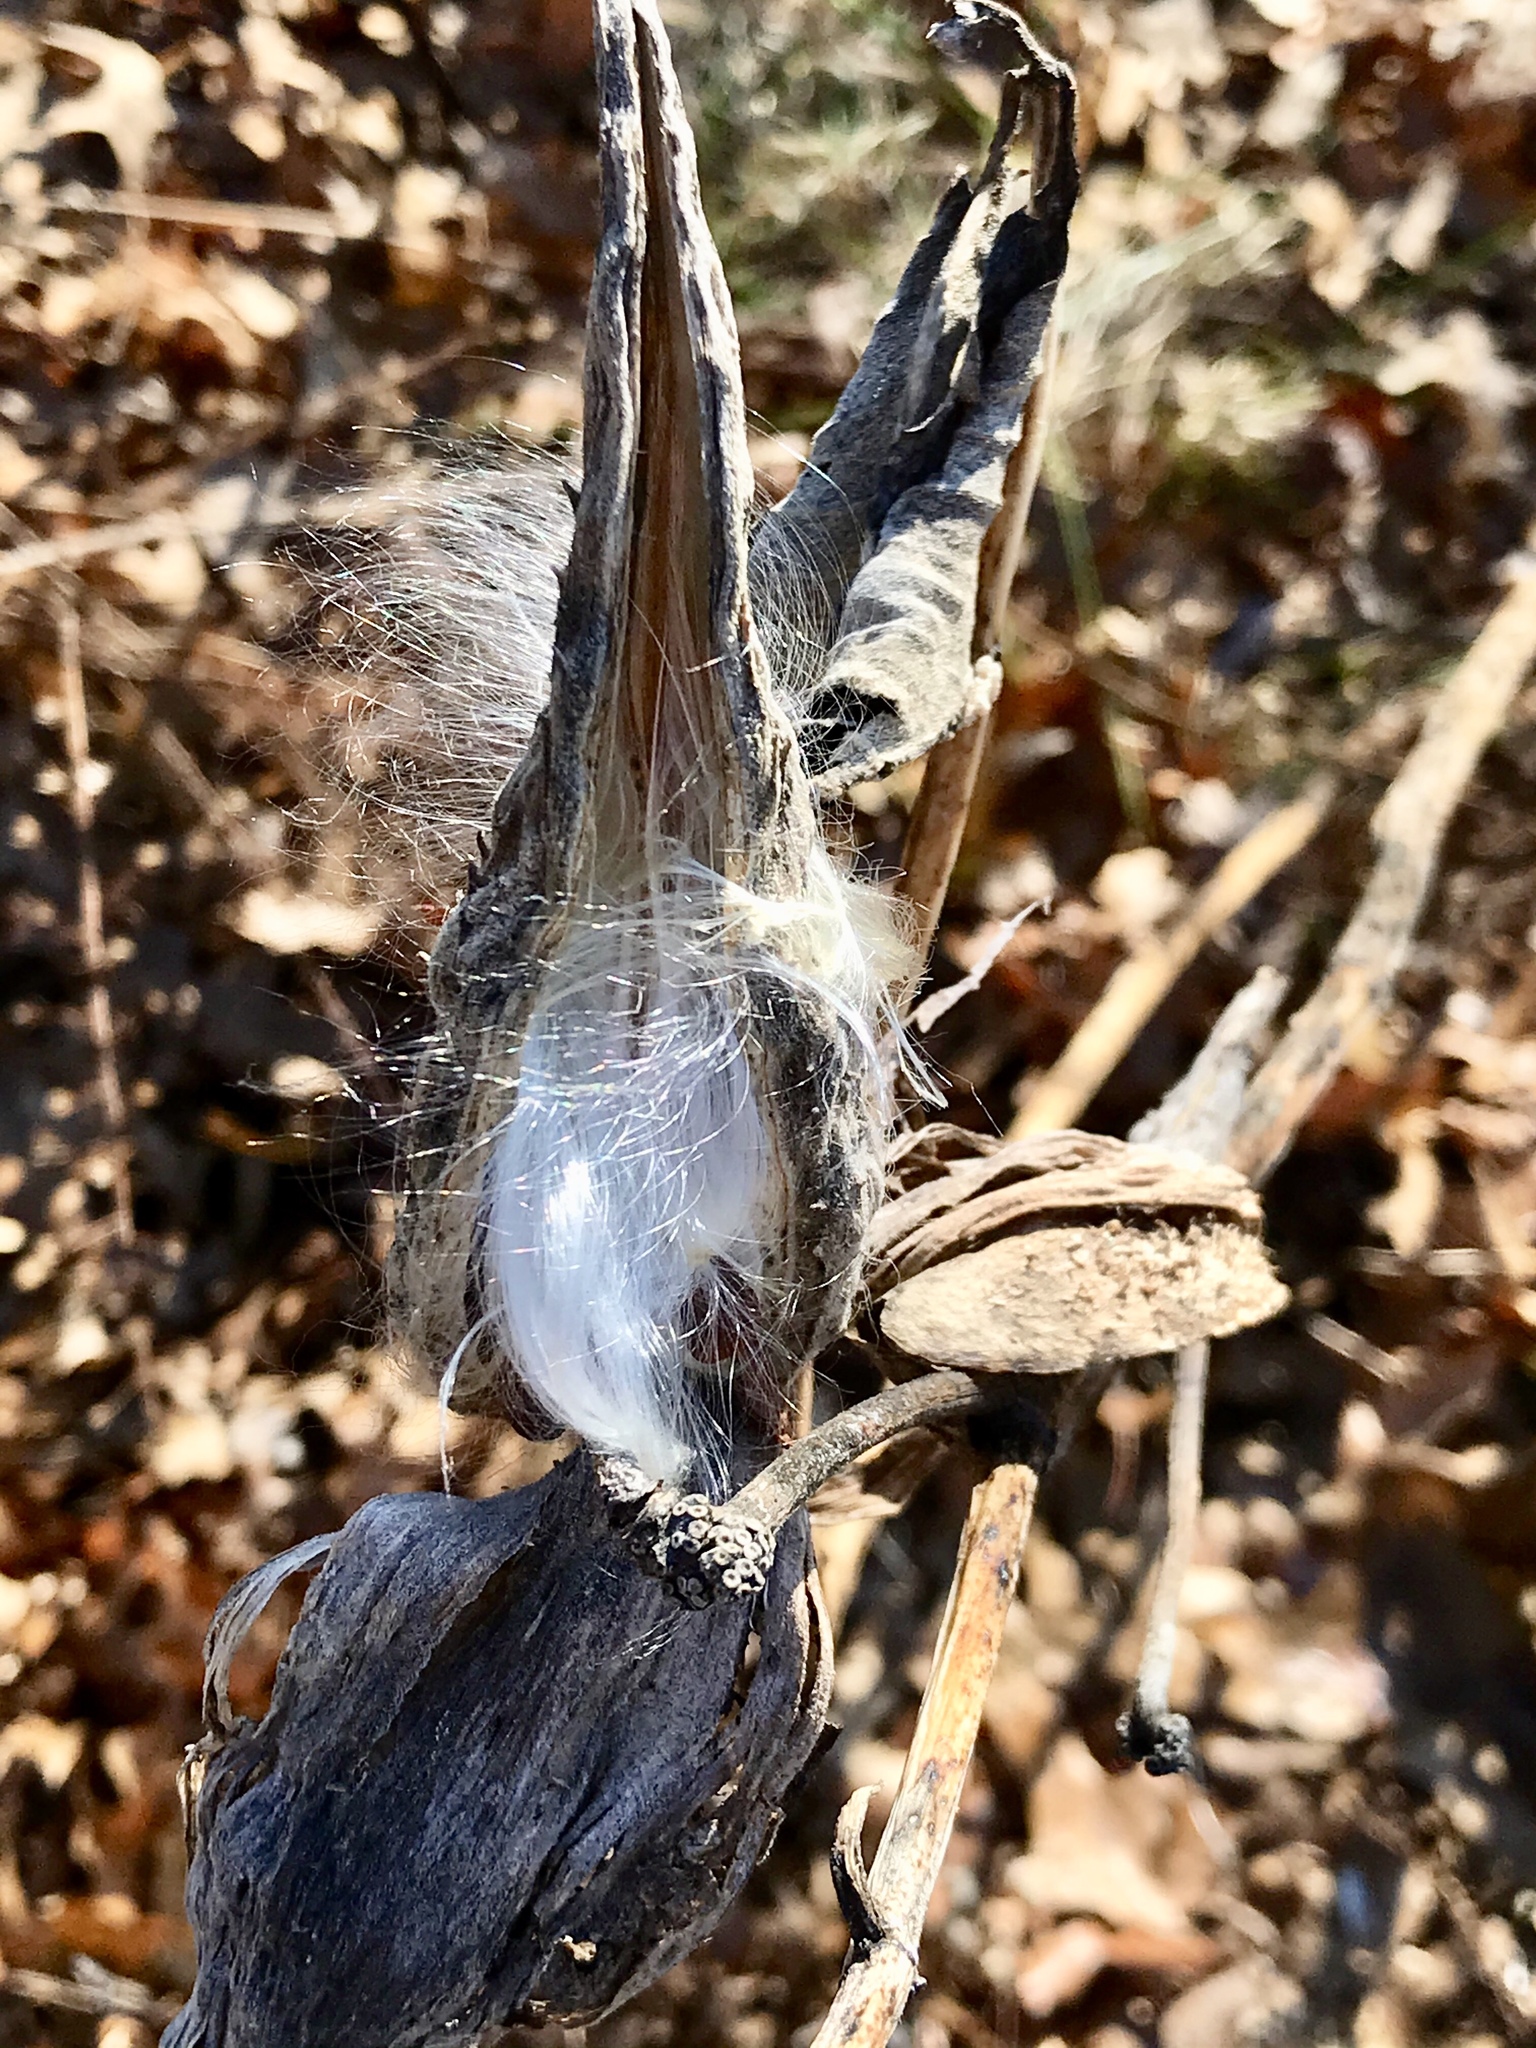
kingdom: Plantae
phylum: Tracheophyta
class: Magnoliopsida
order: Gentianales
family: Apocynaceae
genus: Asclepias
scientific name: Asclepias syriaca
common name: Common milkweed
